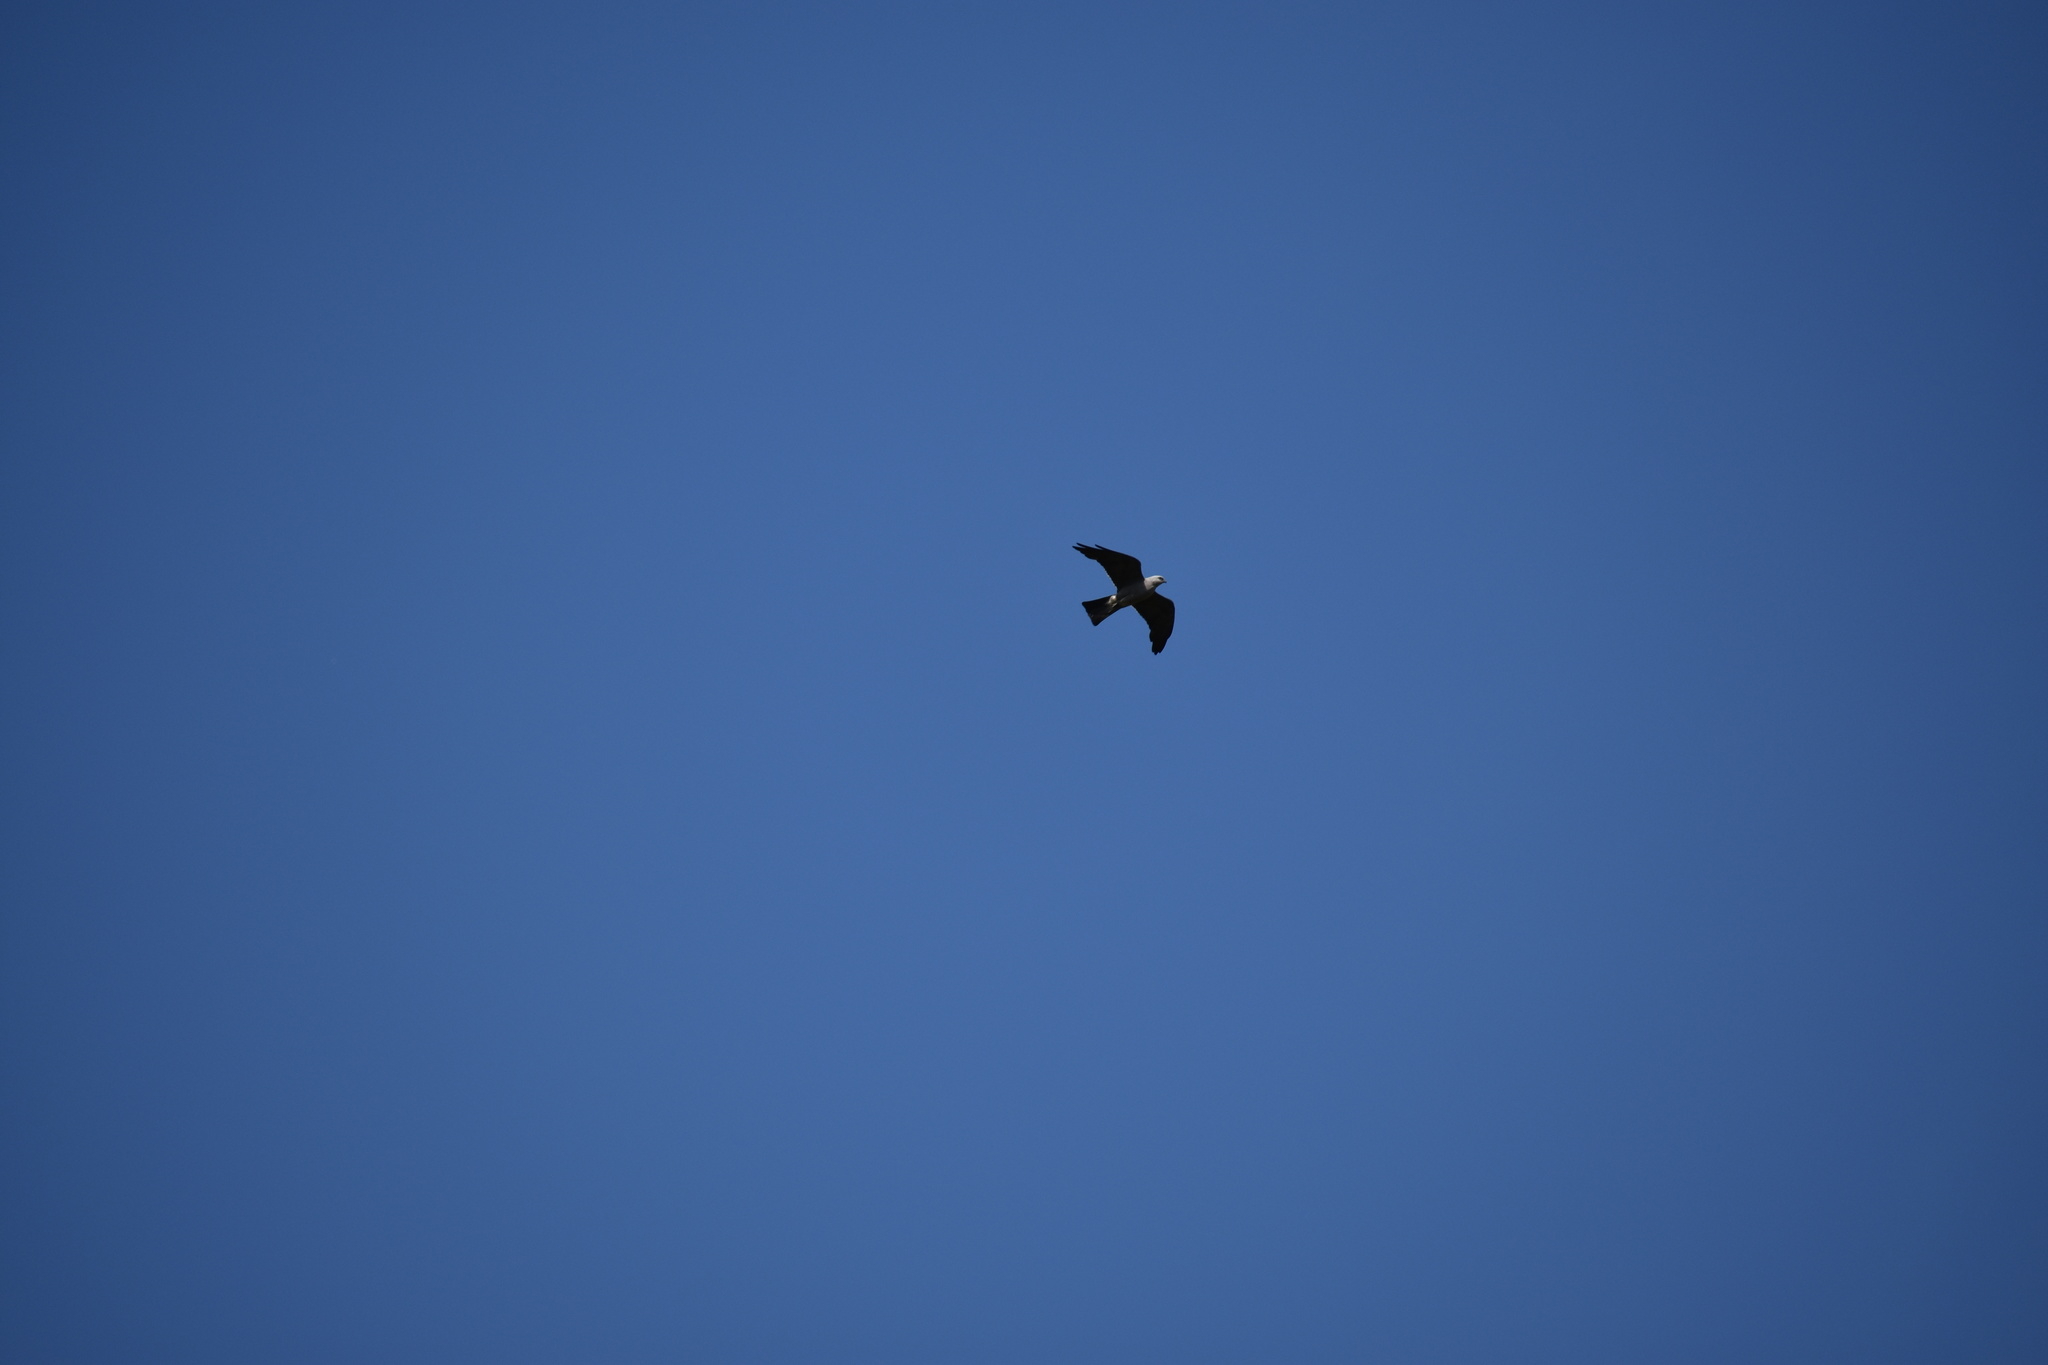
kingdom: Animalia
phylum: Chordata
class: Aves
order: Accipitriformes
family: Accipitridae
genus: Ictinia
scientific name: Ictinia mississippiensis
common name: Mississippi kite
